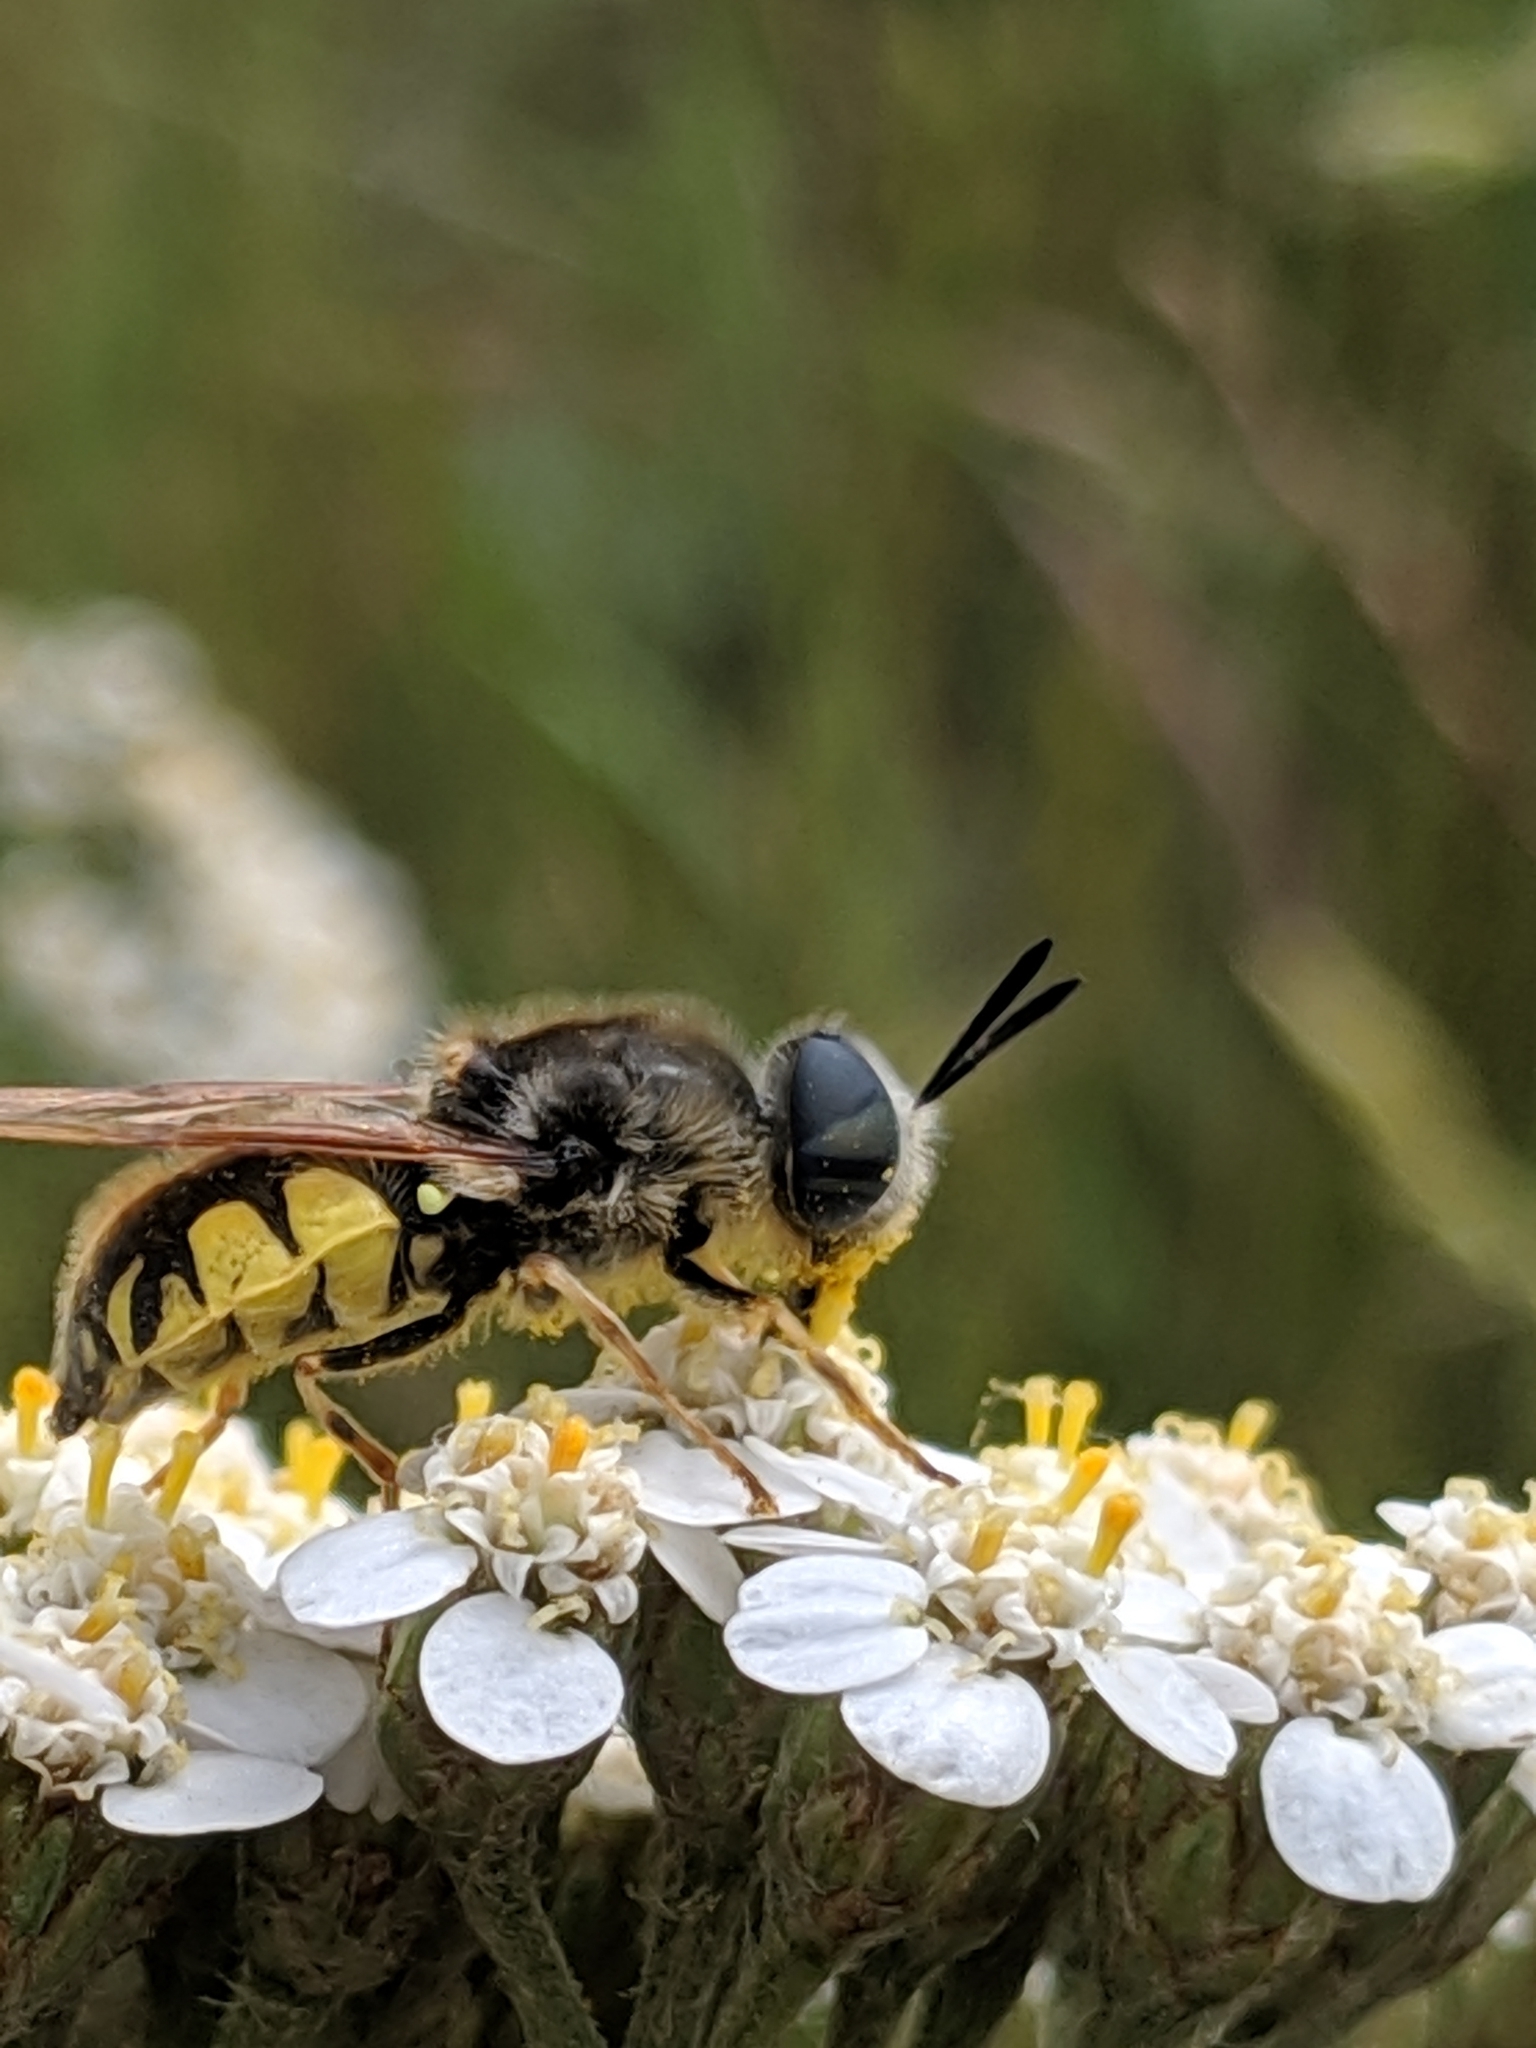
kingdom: Animalia
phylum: Arthropoda
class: Insecta
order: Diptera
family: Stratiomyidae
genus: Stratiomys
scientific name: Stratiomys maculosa
